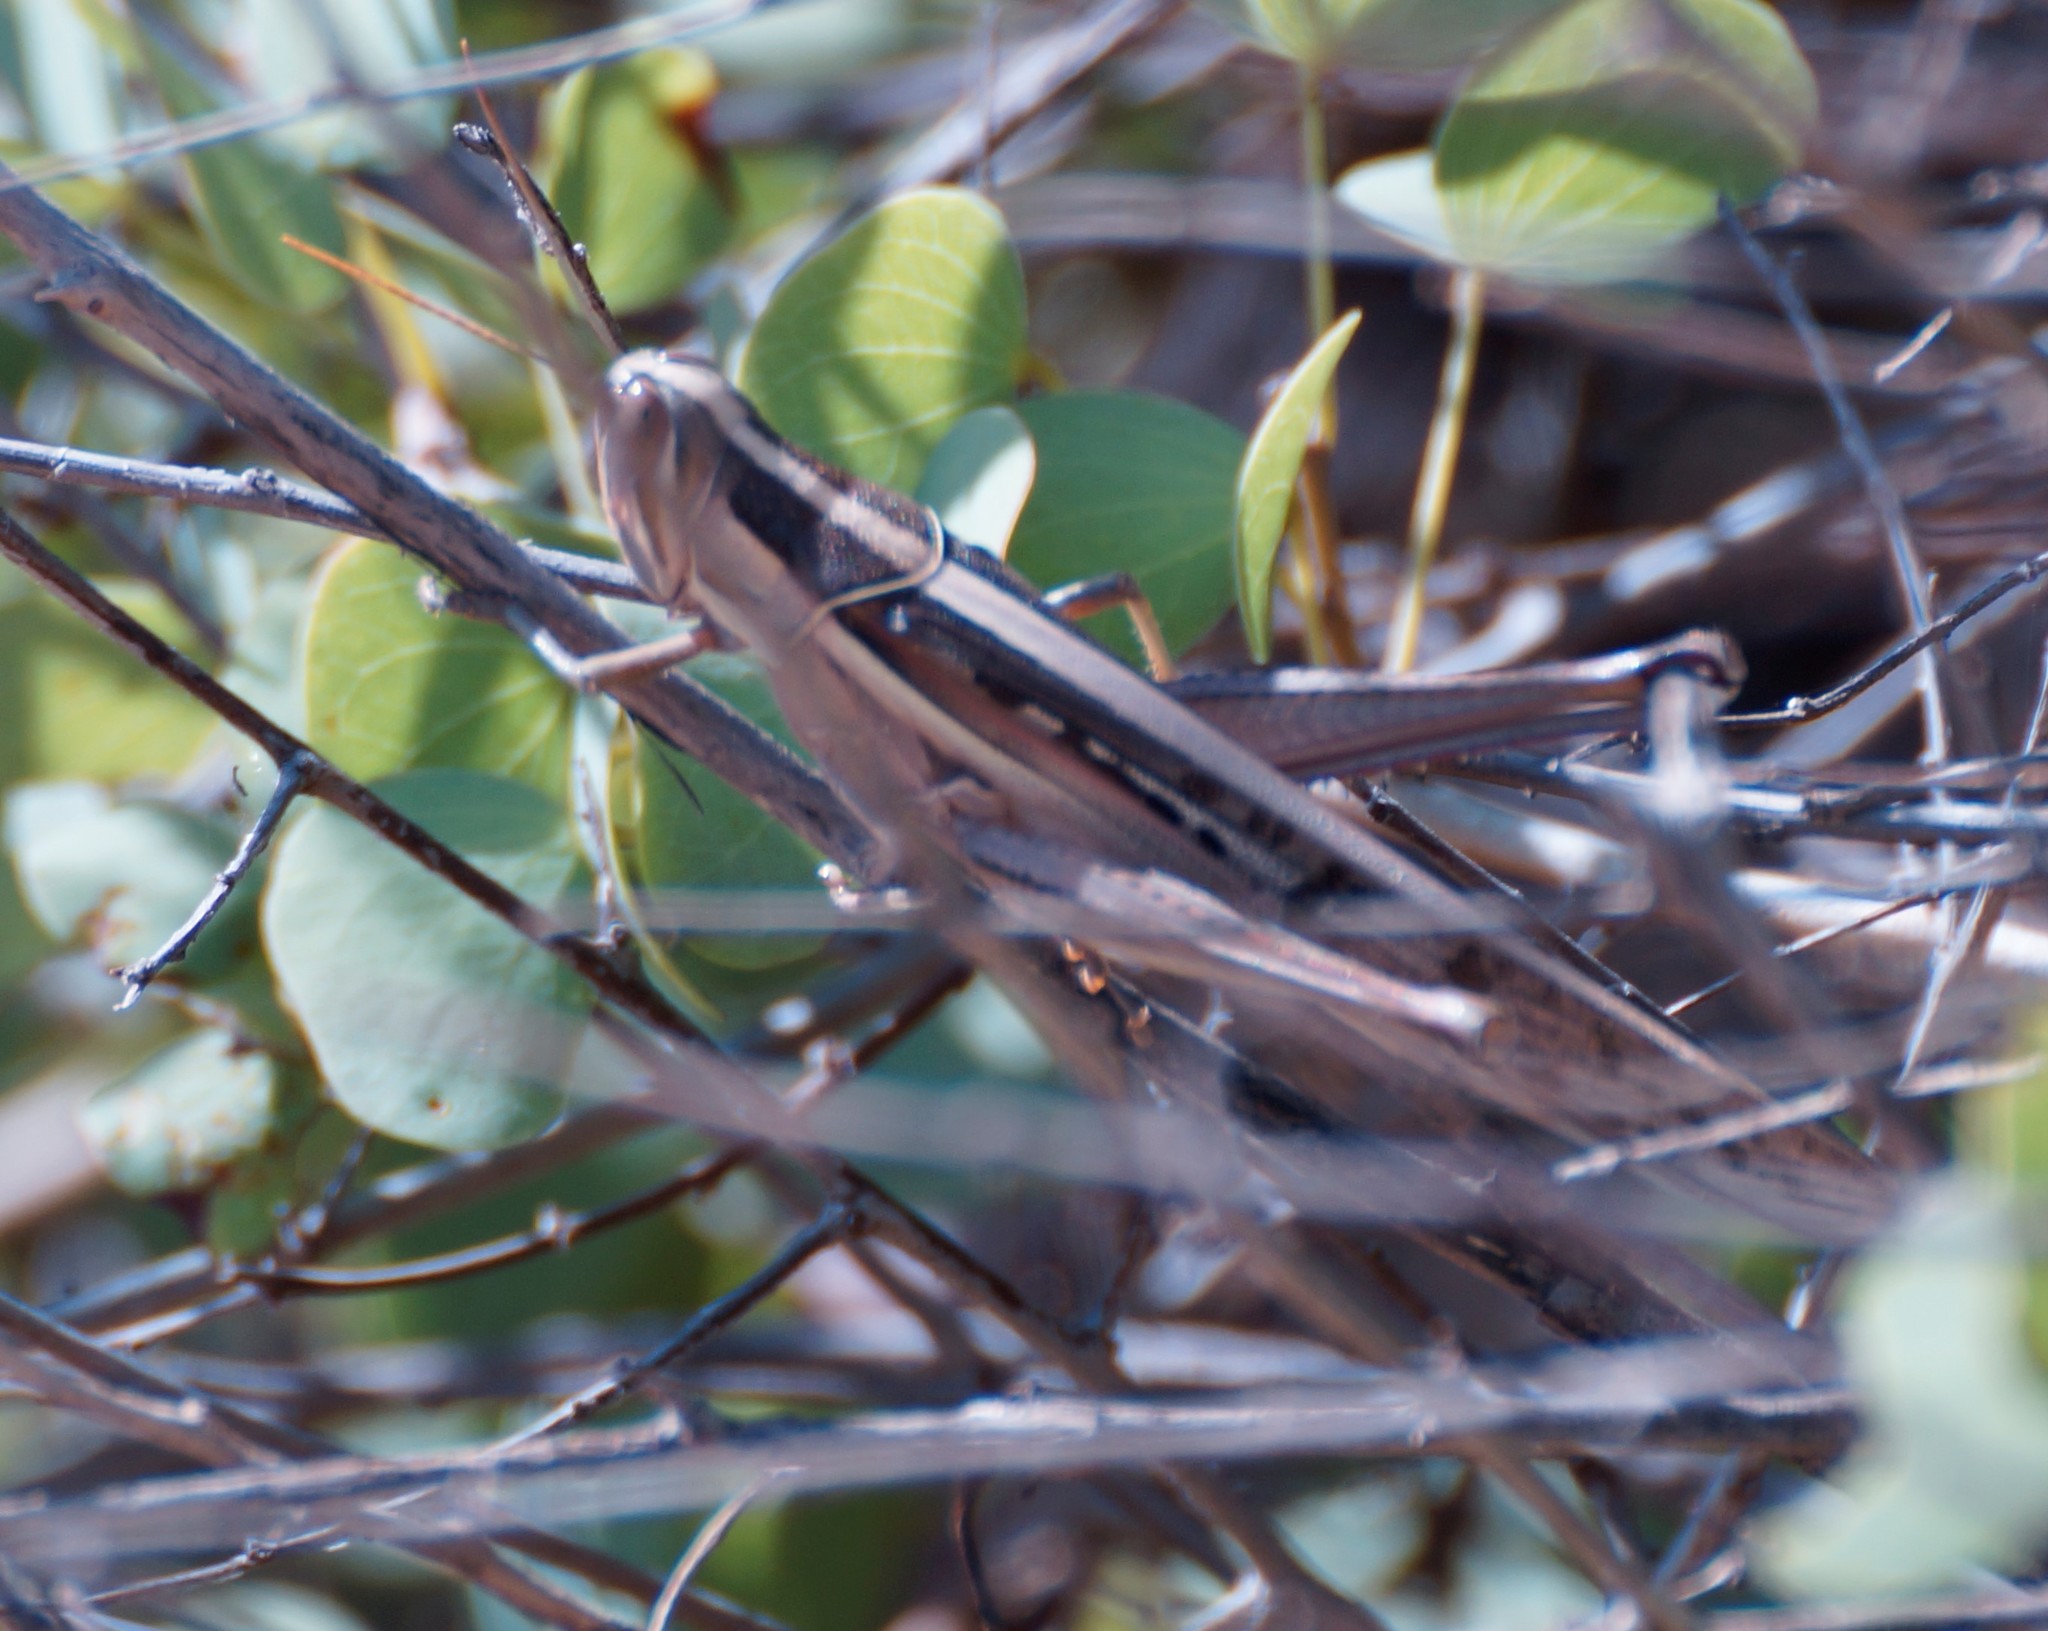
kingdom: Animalia
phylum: Arthropoda
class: Insecta
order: Orthoptera
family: Acrididae
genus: Austracris
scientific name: Austracris guttulosa
